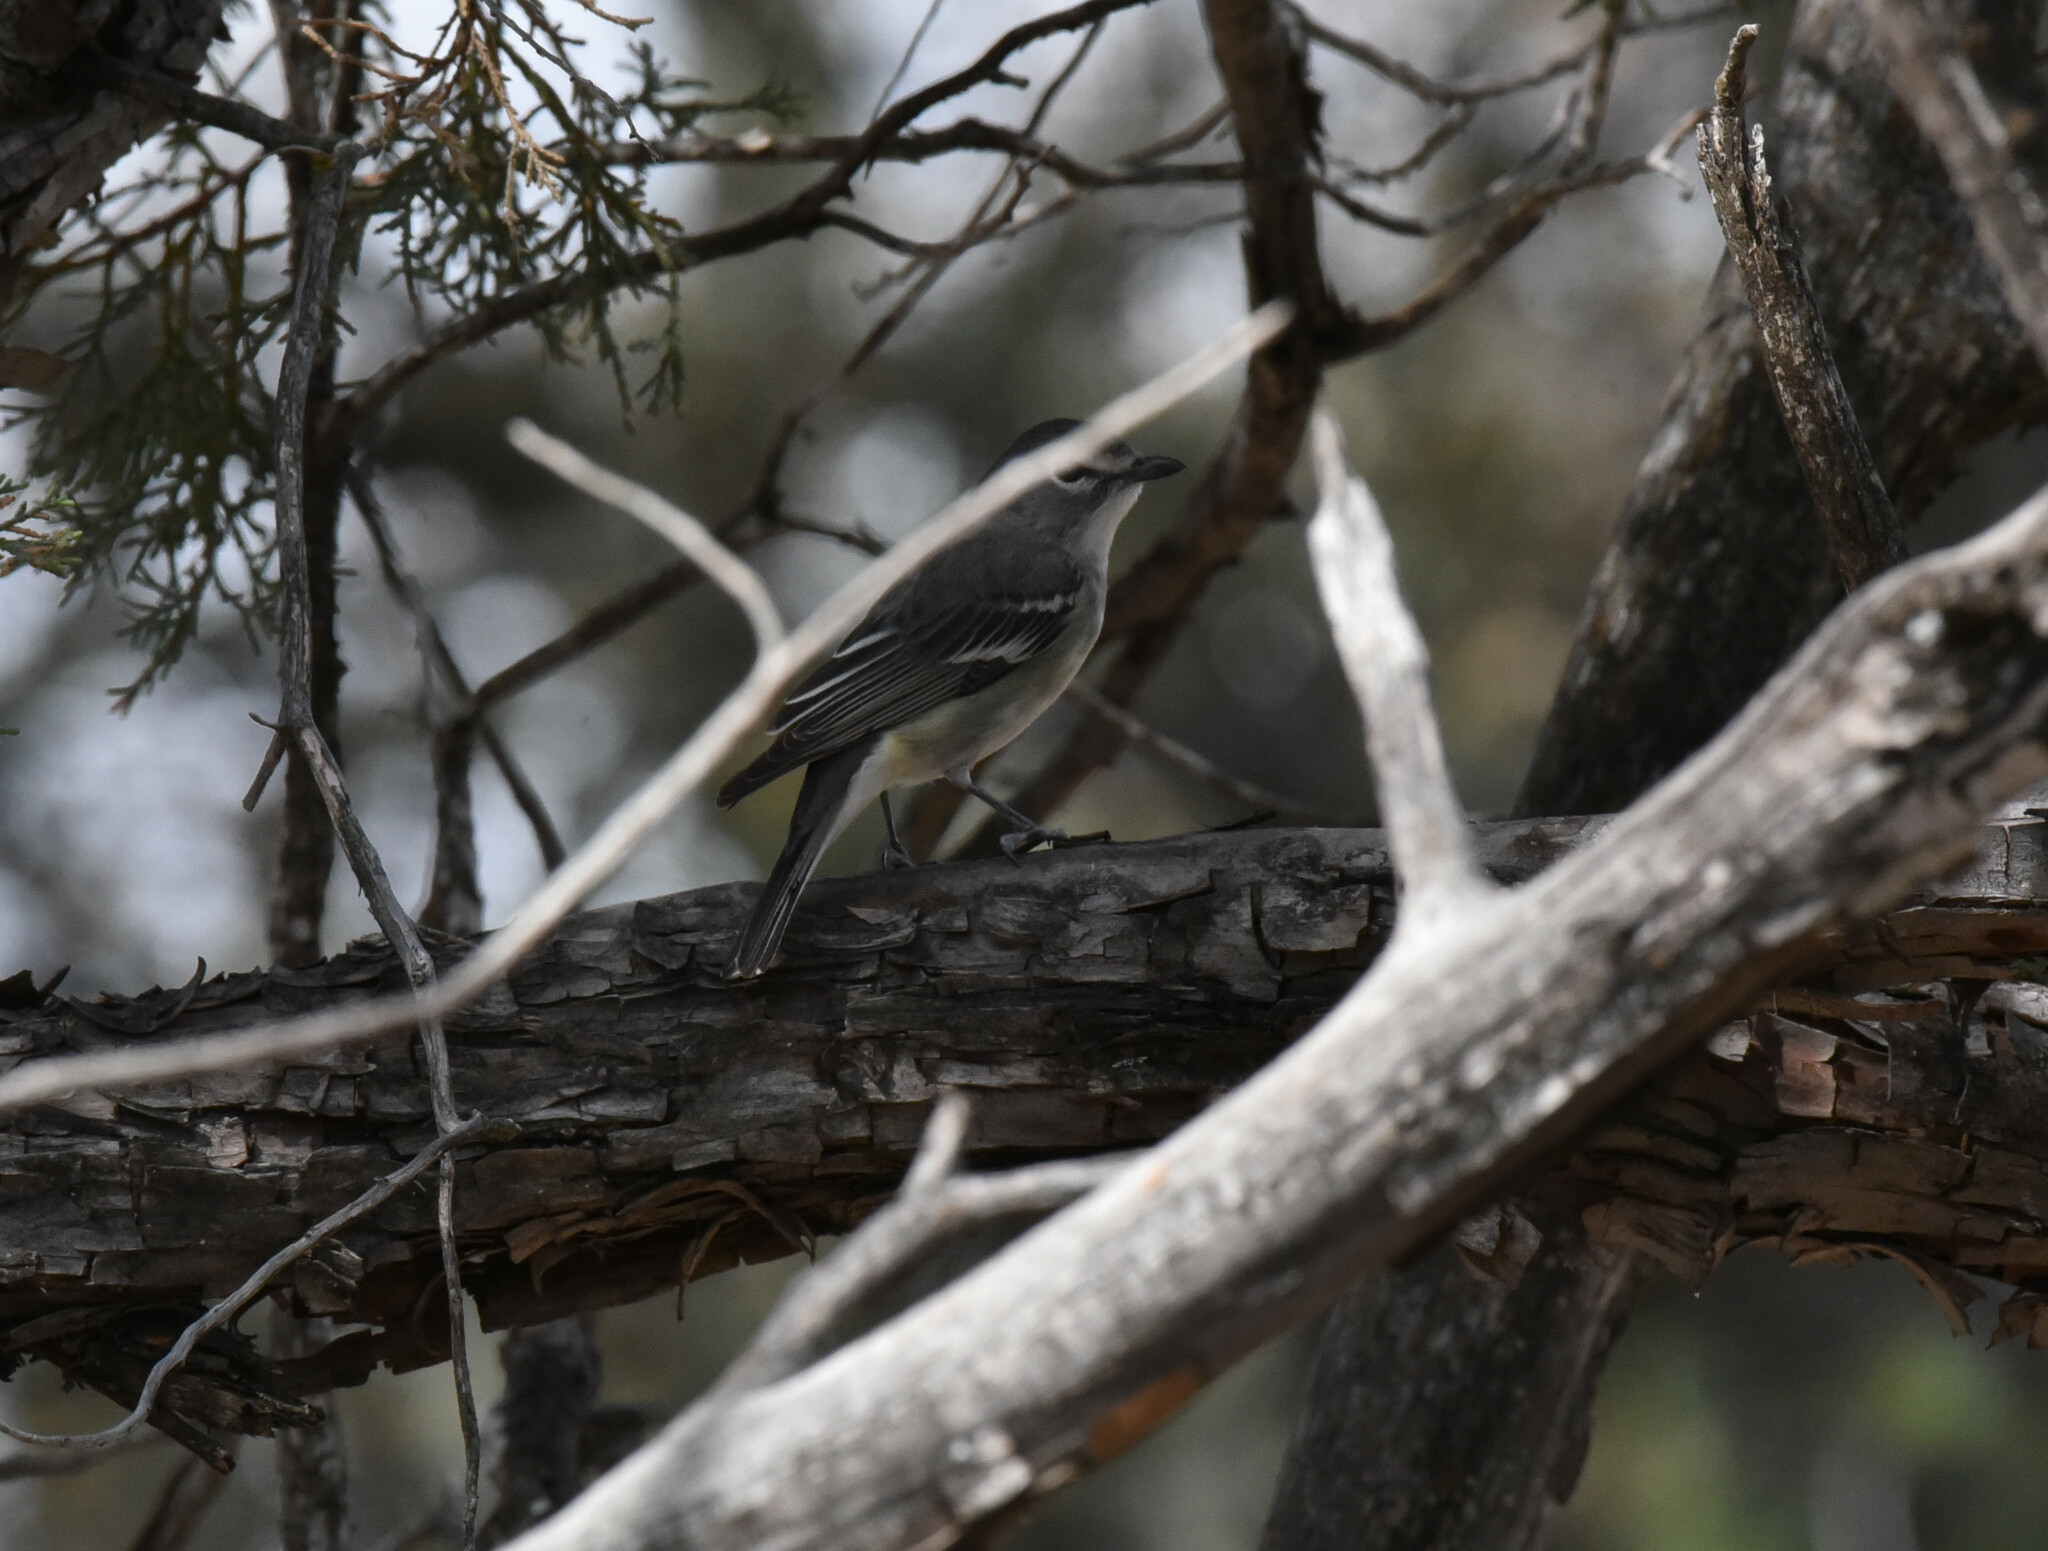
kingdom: Animalia
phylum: Chordata
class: Aves
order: Passeriformes
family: Vireonidae
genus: Vireo
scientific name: Vireo plumbeus
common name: Plumbeous vireo
